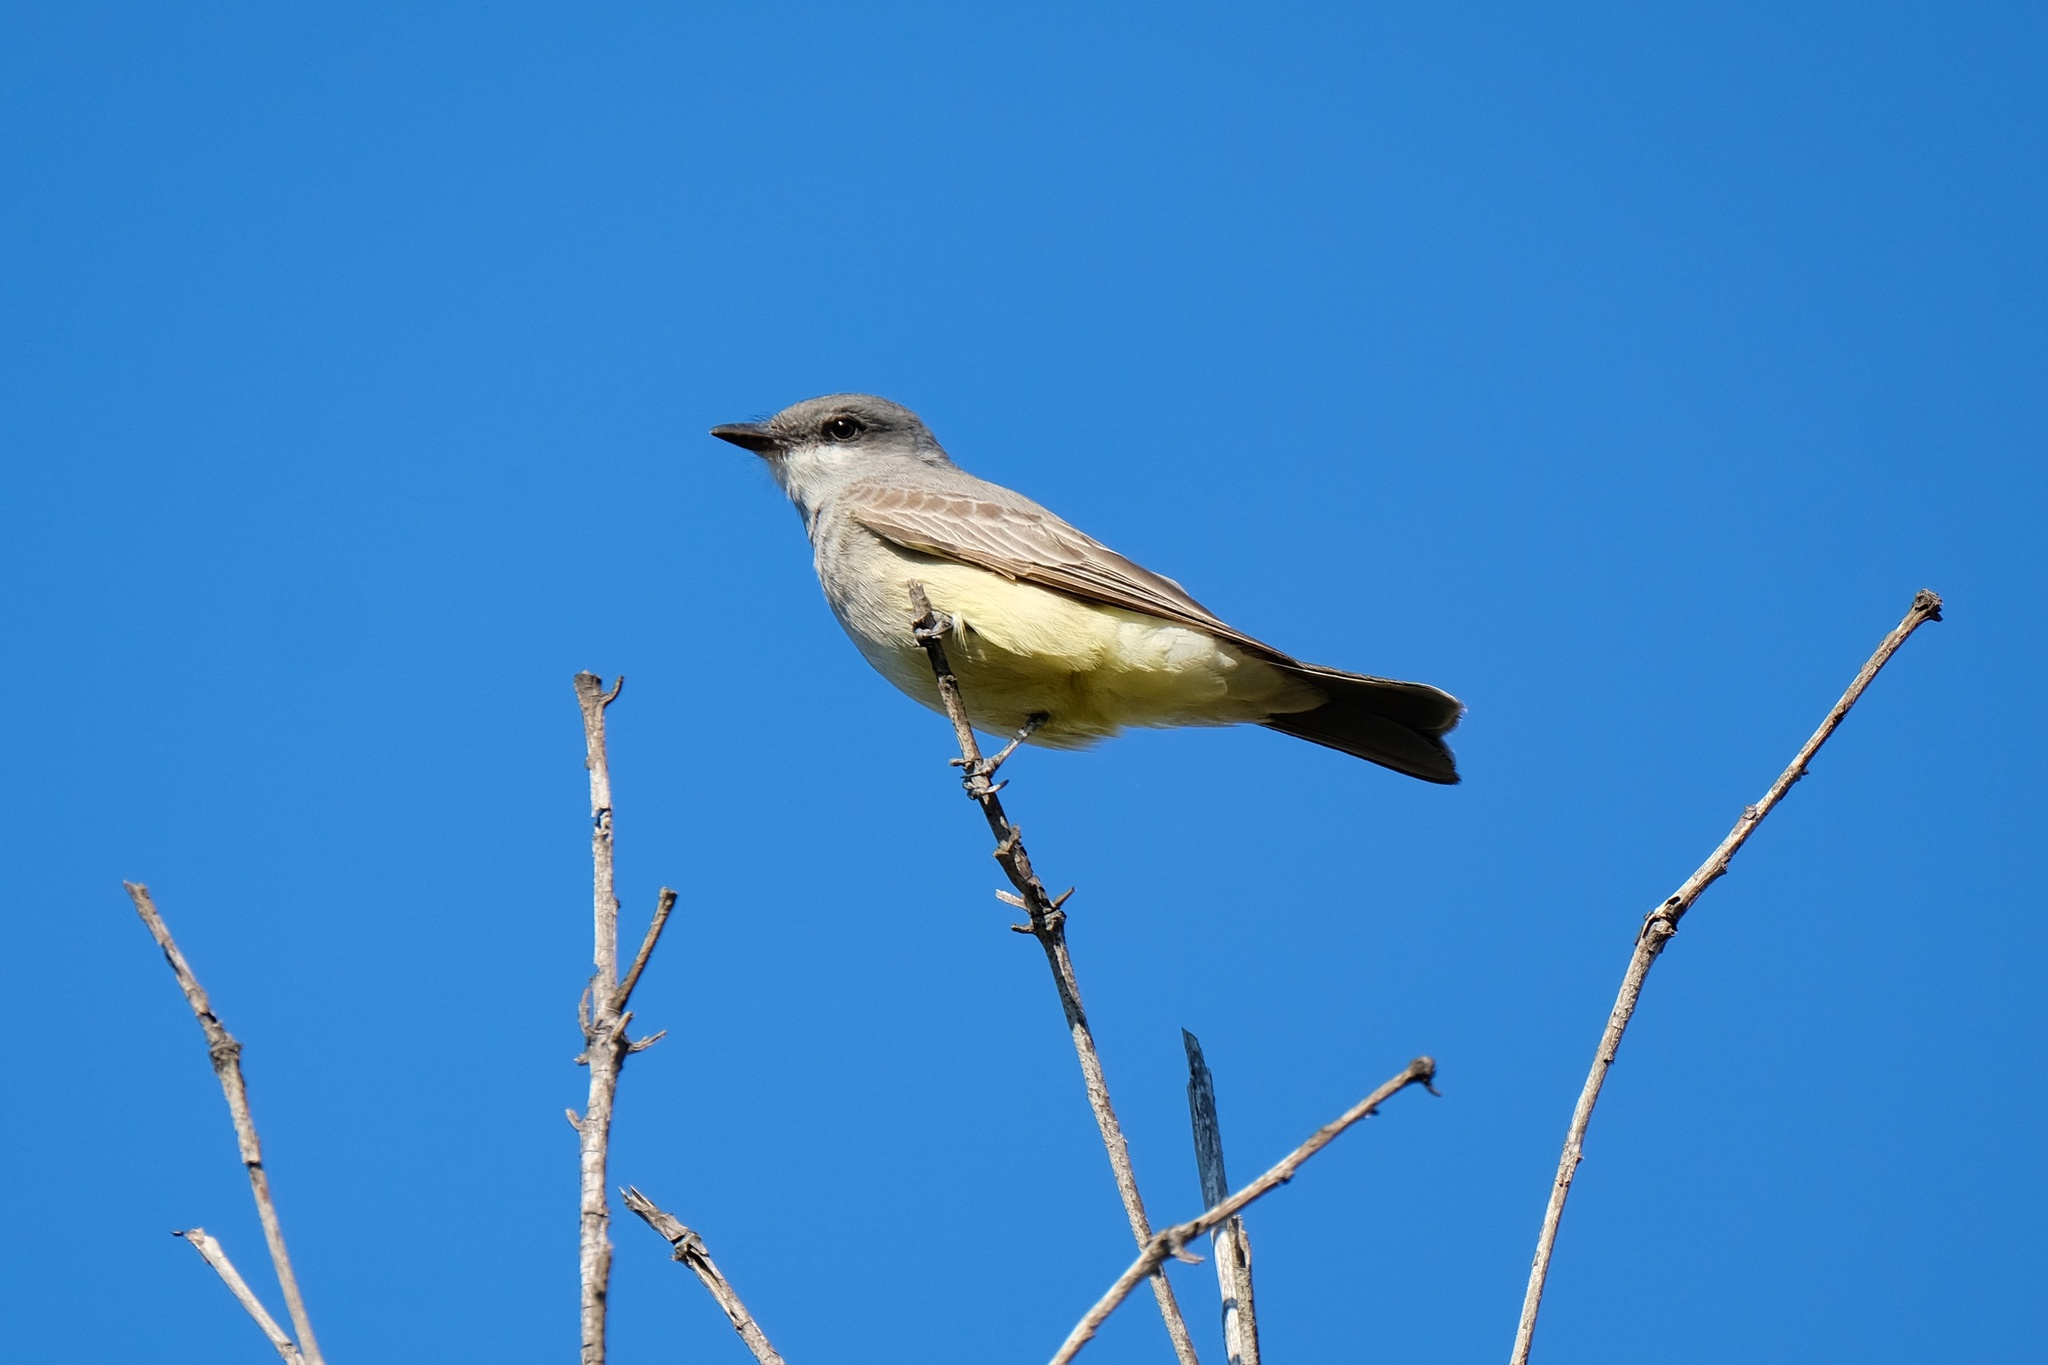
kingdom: Animalia
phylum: Chordata
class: Aves
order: Passeriformes
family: Tyrannidae
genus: Tyrannus
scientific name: Tyrannus vociferans
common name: Cassin's kingbird
